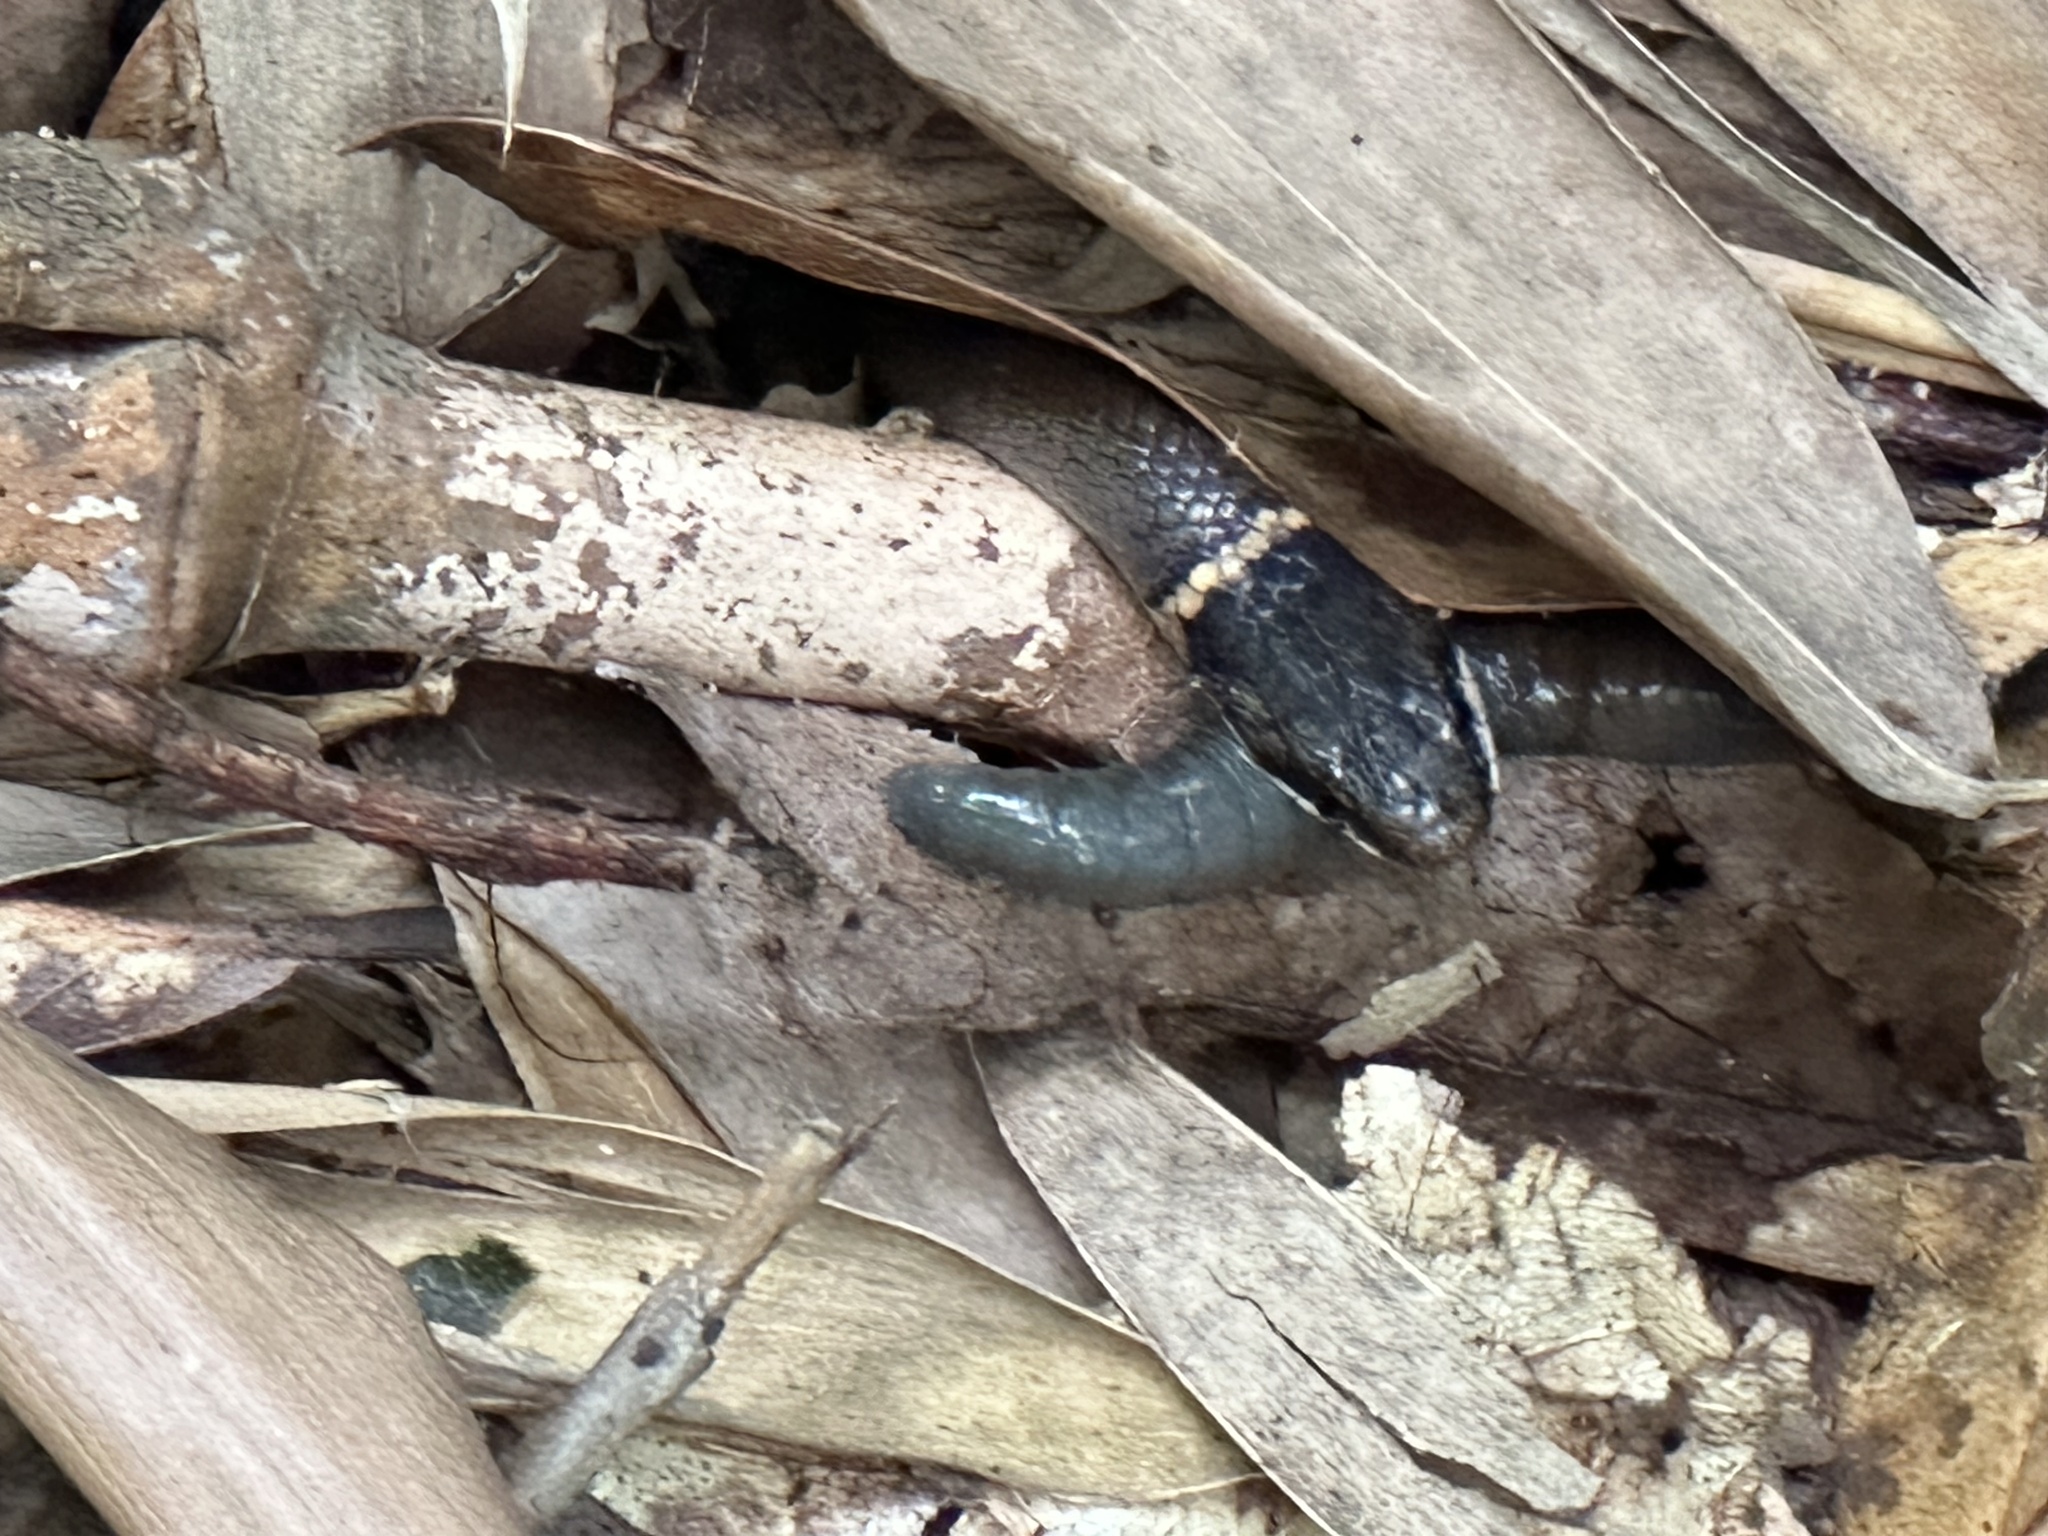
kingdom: Animalia
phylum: Chordata
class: Squamata
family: Colubridae
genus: Diadophis
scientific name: Diadophis punctatus
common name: Ringneck snake
